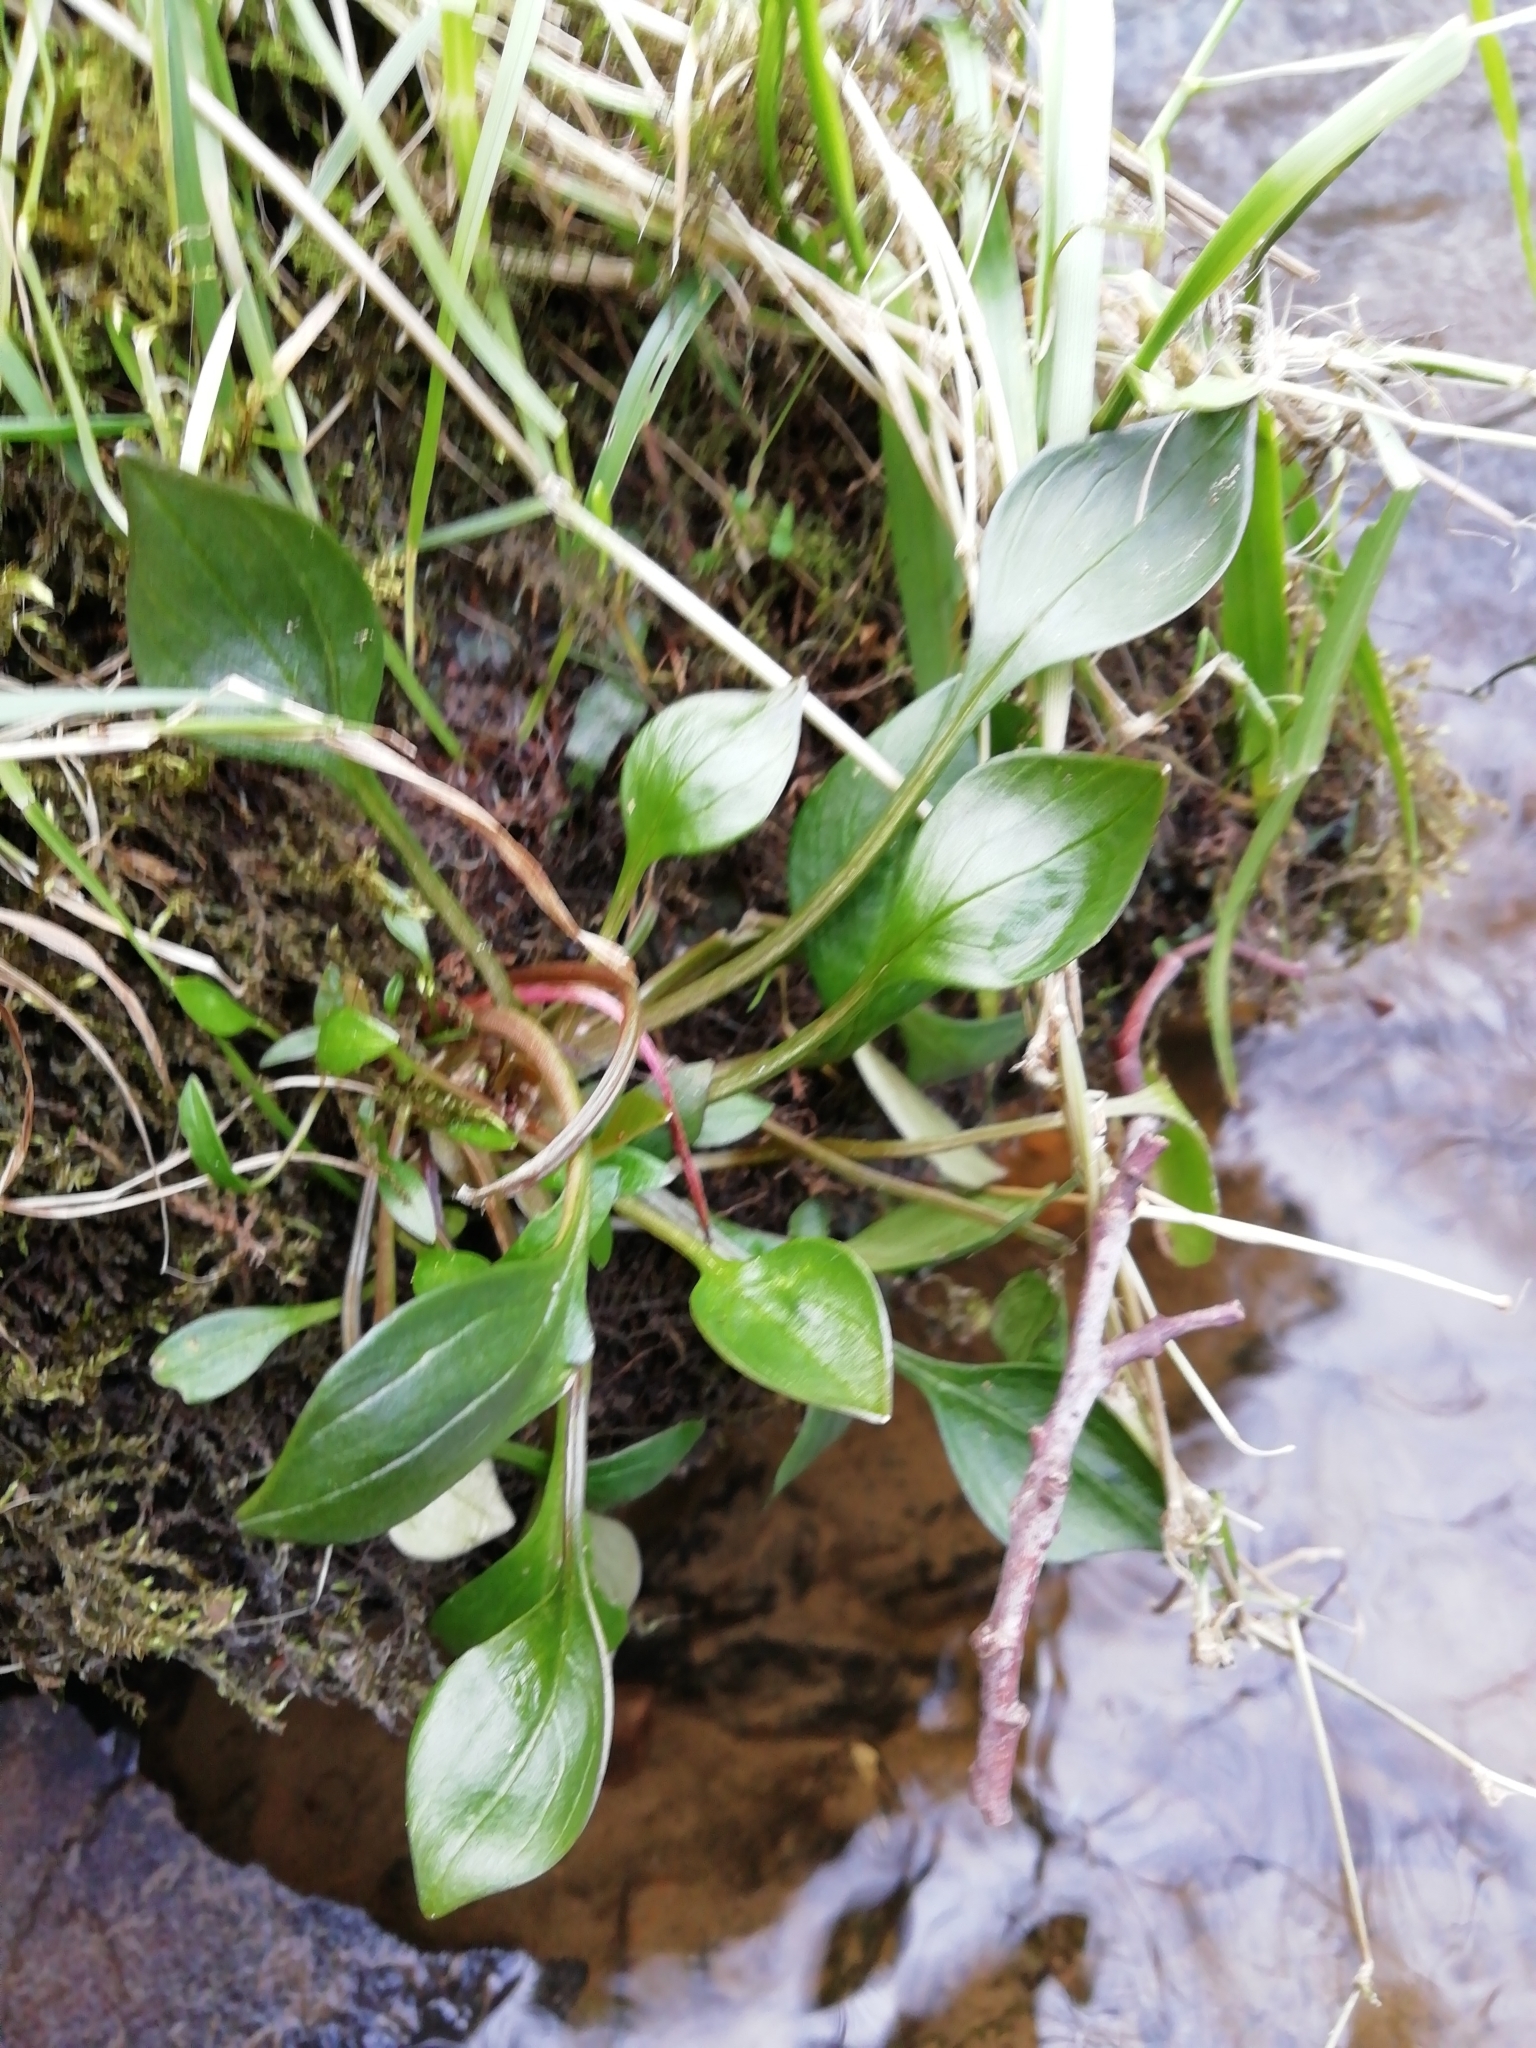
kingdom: Plantae
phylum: Tracheophyta
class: Magnoliopsida
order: Caryophyllales
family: Montiaceae
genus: Claytonia
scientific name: Claytonia sibirica
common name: Pink purslane
